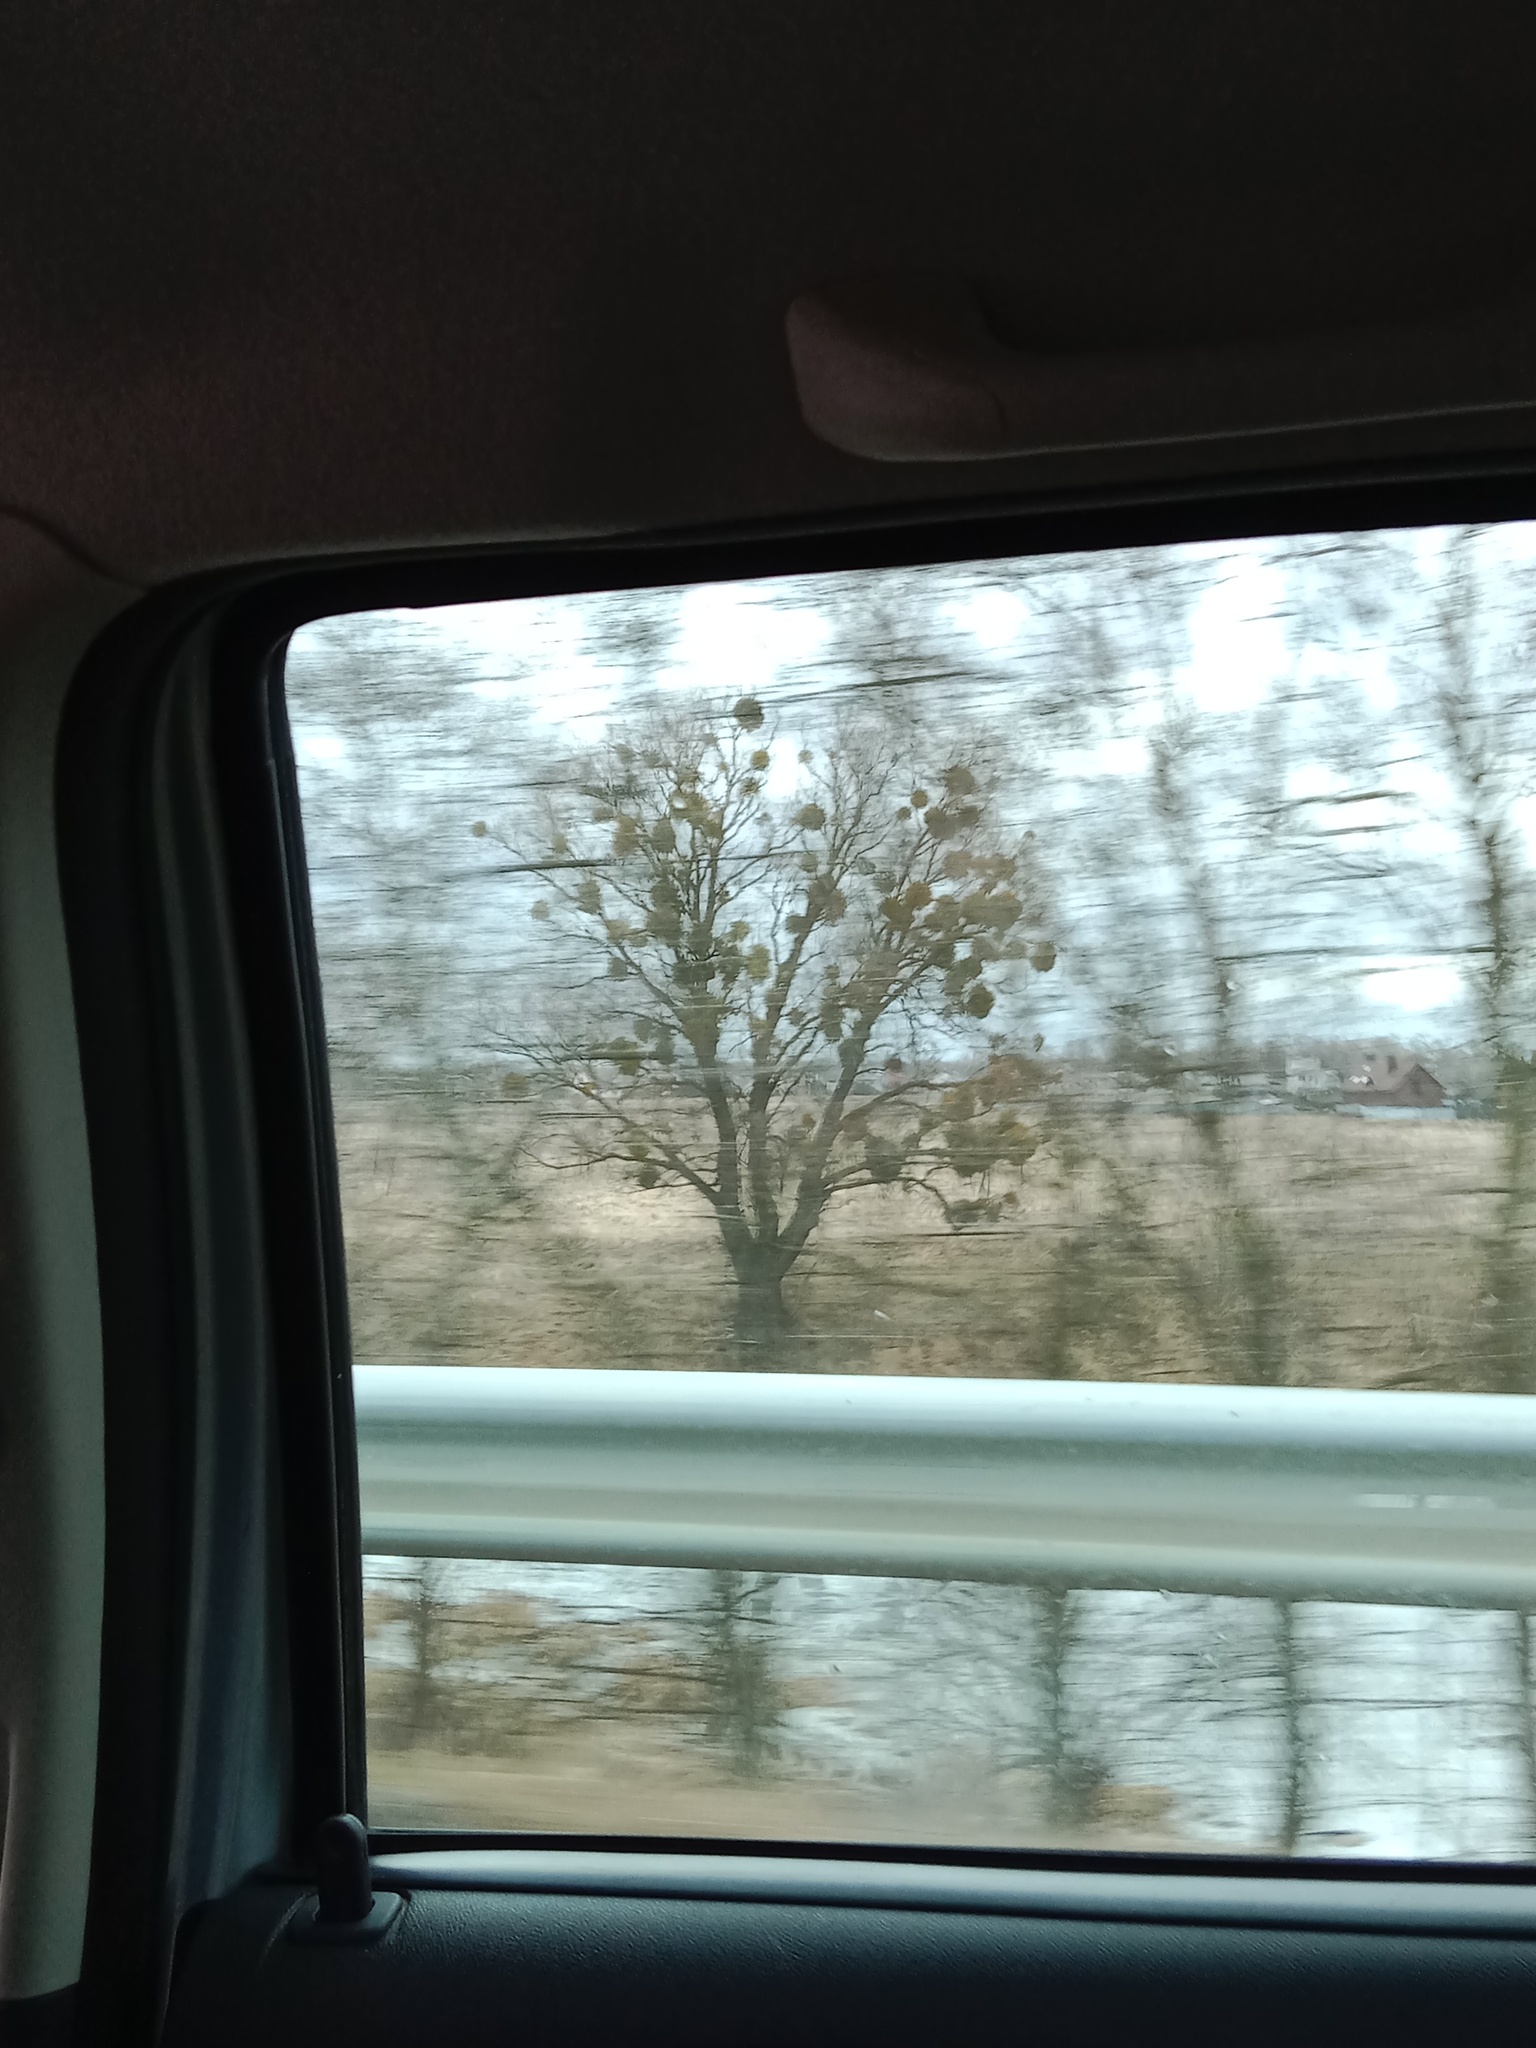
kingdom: Plantae
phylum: Tracheophyta
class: Magnoliopsida
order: Santalales
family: Viscaceae
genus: Viscum
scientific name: Viscum album
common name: Mistletoe
